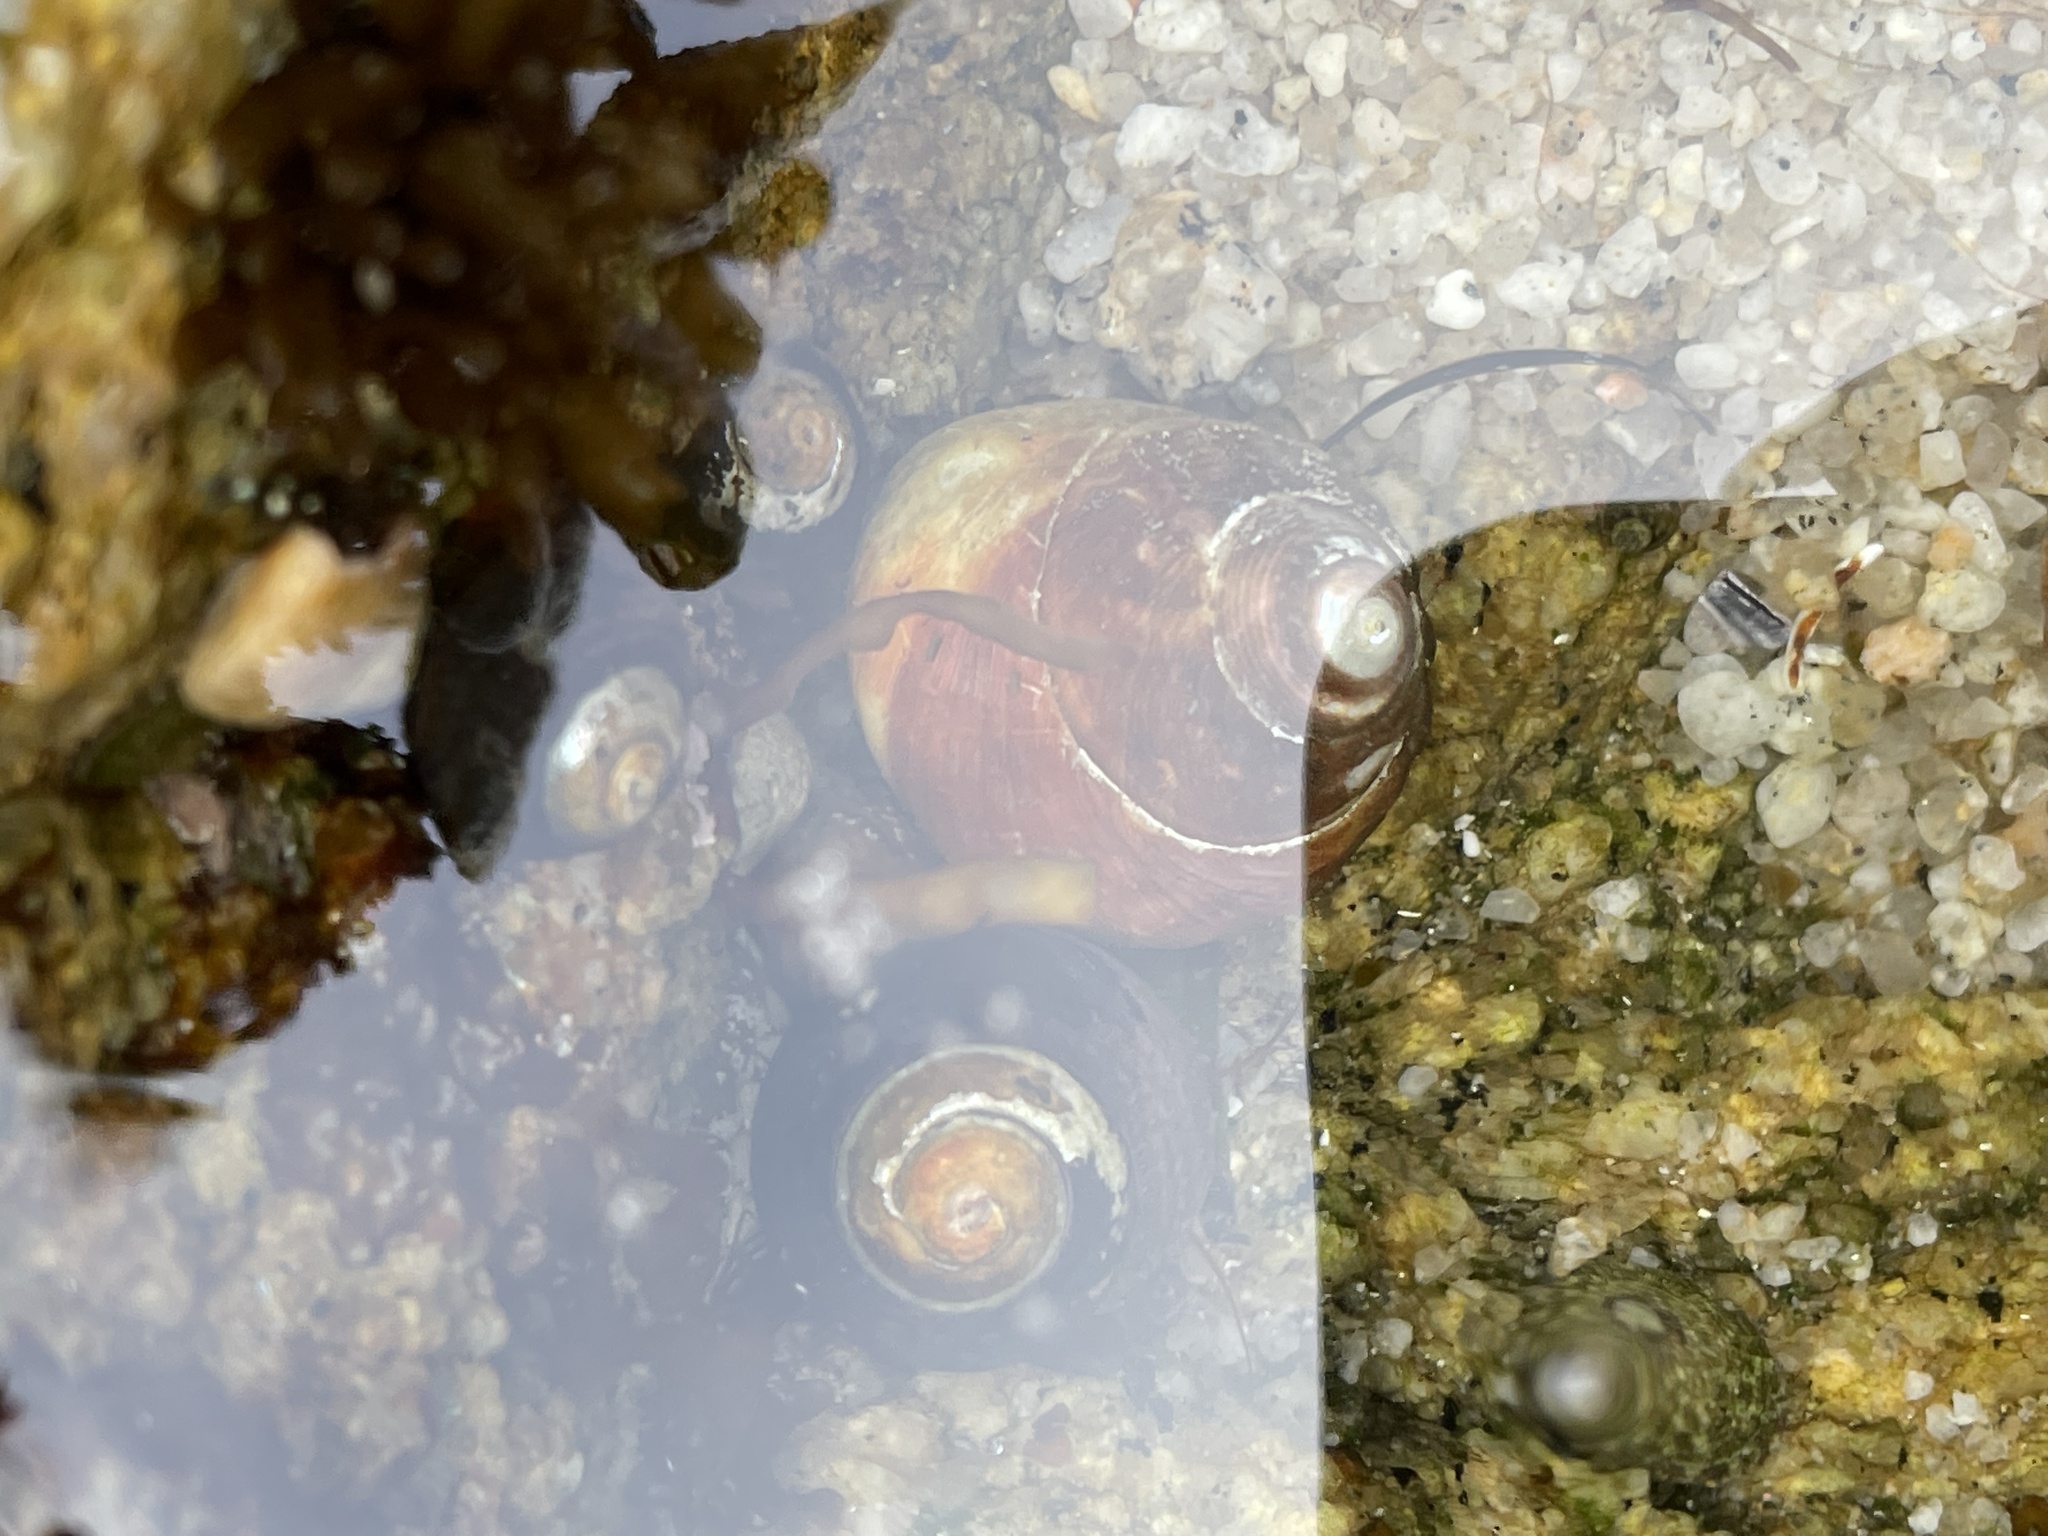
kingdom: Animalia
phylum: Mollusca
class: Gastropoda
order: Trochida
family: Tegulidae
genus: Tegula
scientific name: Tegula brunnea
